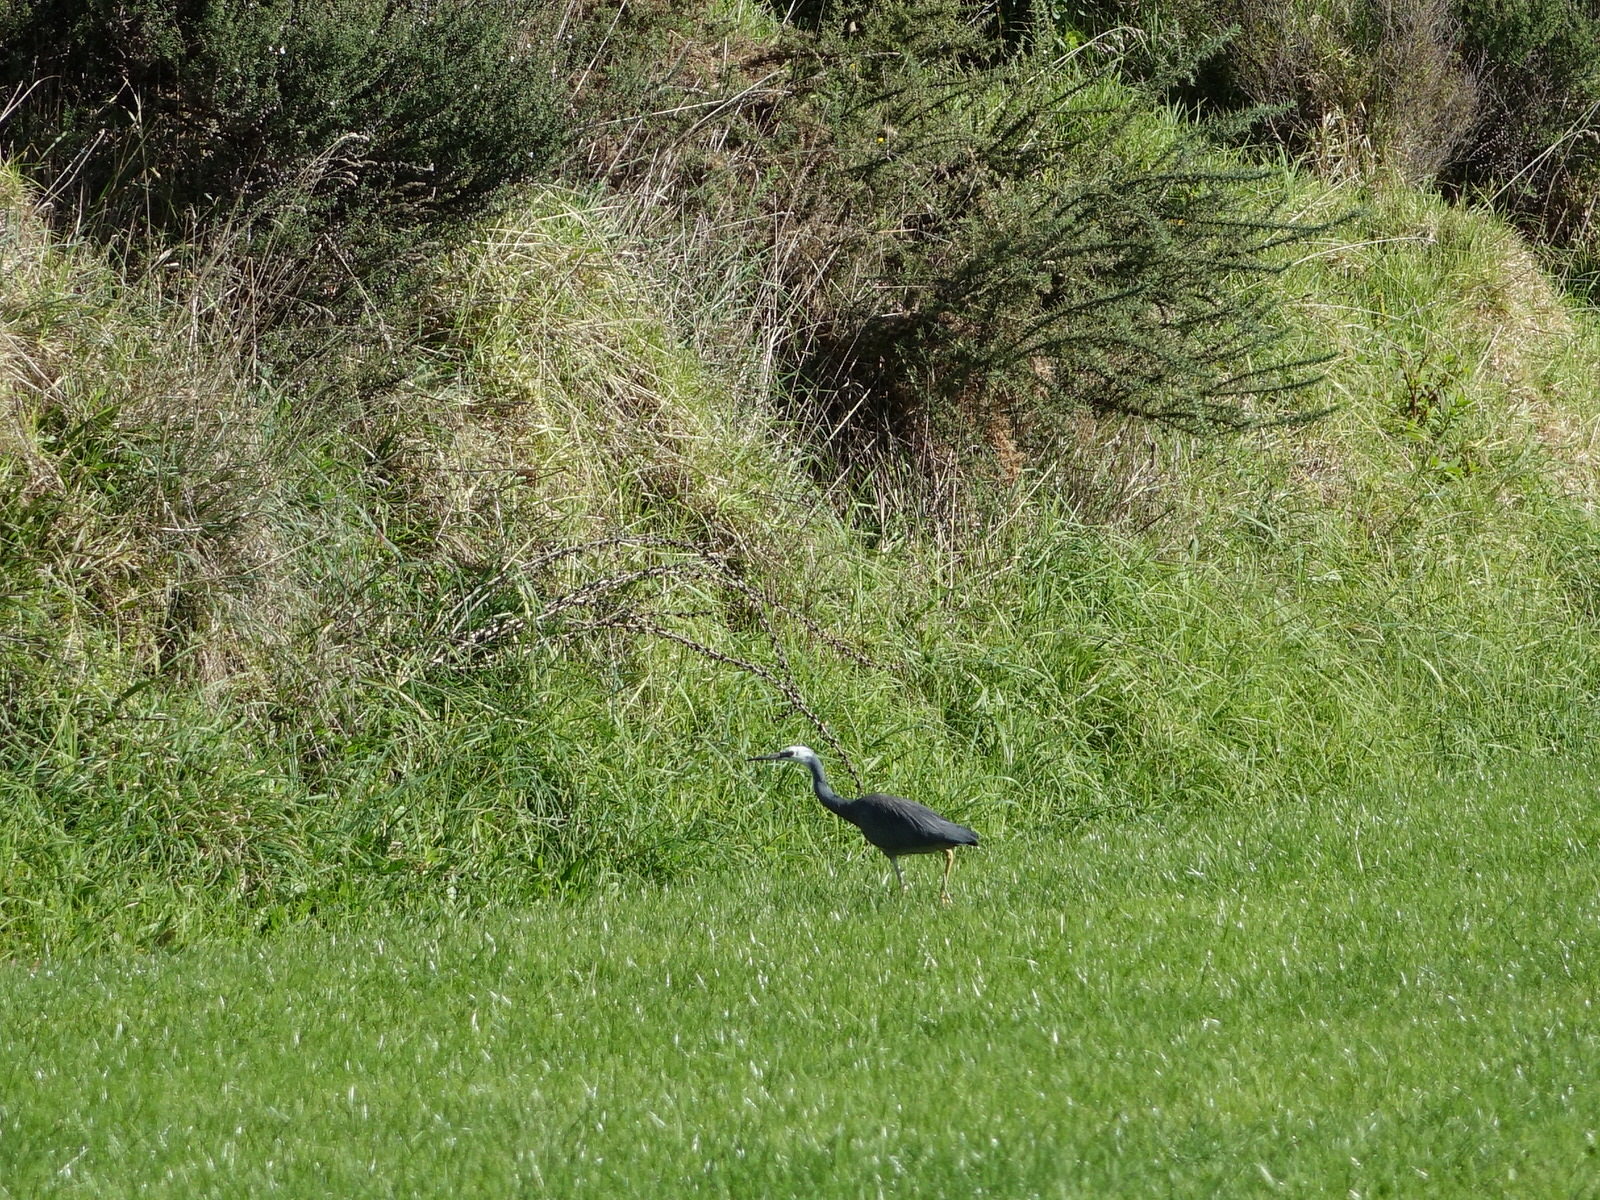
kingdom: Animalia
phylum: Chordata
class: Aves
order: Pelecaniformes
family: Ardeidae
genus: Egretta
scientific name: Egretta novaehollandiae
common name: White-faced heron
